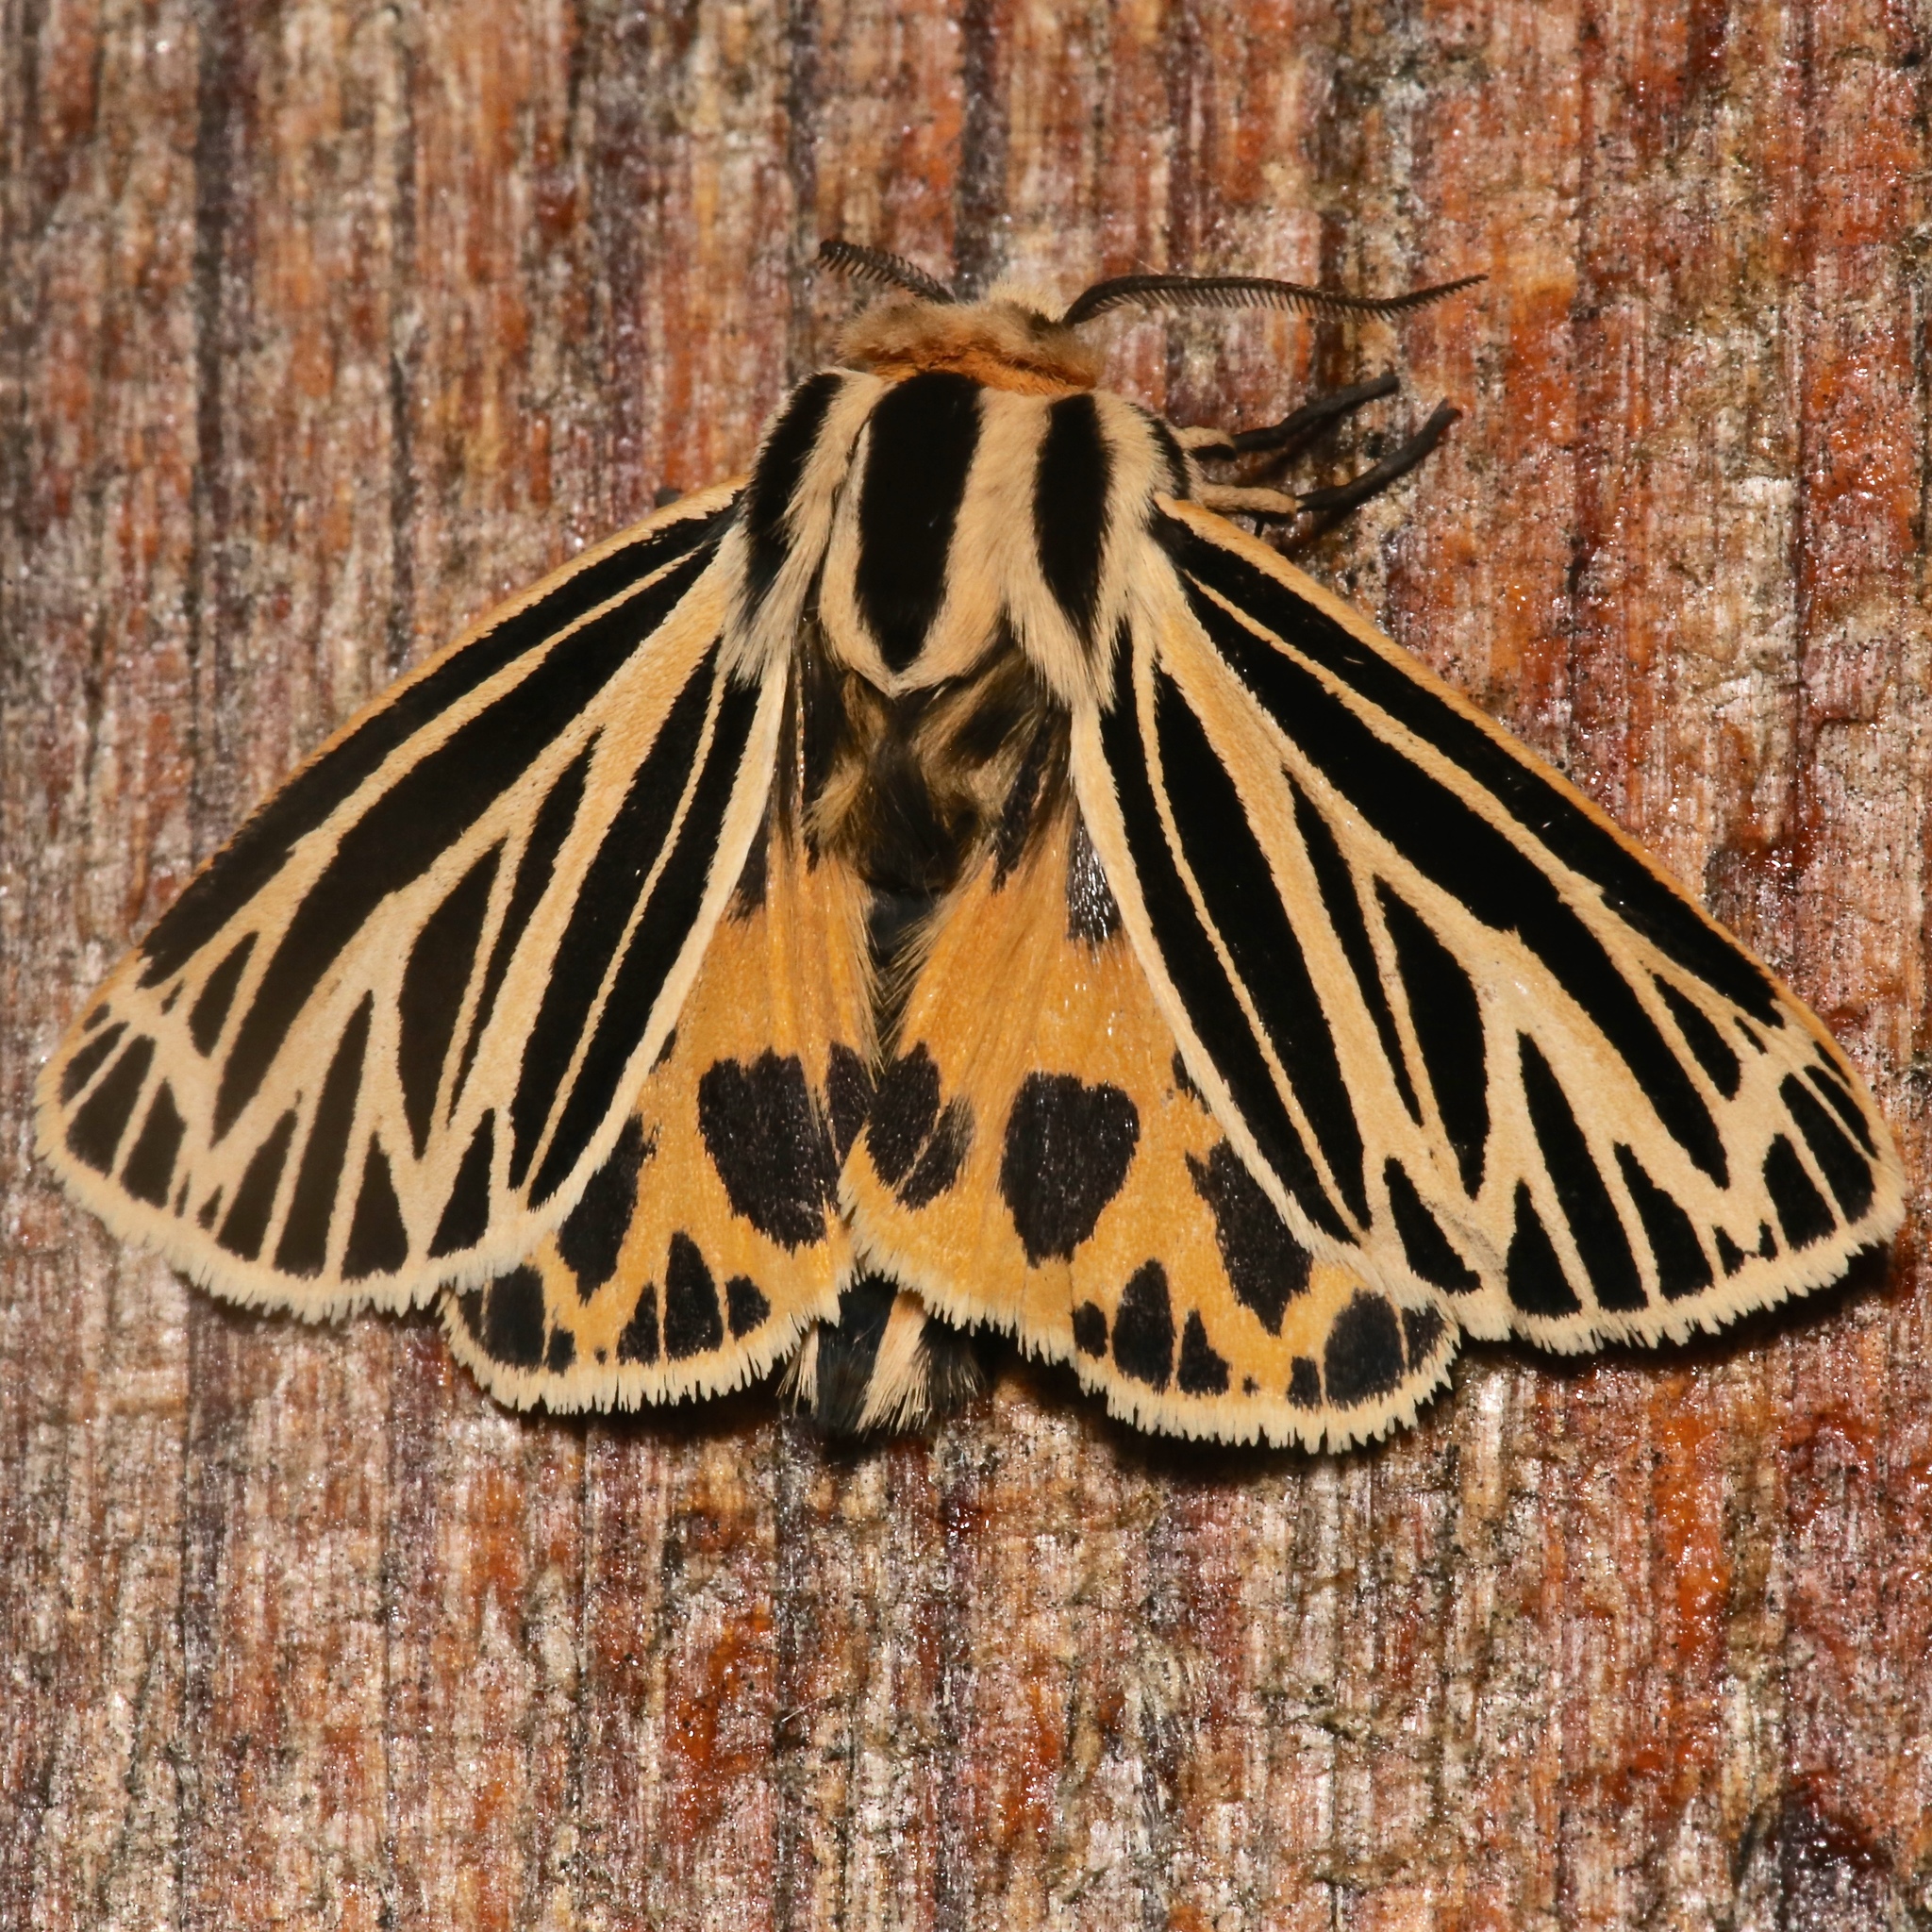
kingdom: Animalia
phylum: Arthropoda
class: Insecta
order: Lepidoptera
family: Erebidae
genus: Grammia
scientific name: Grammia virguncula
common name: Little tiger moth
